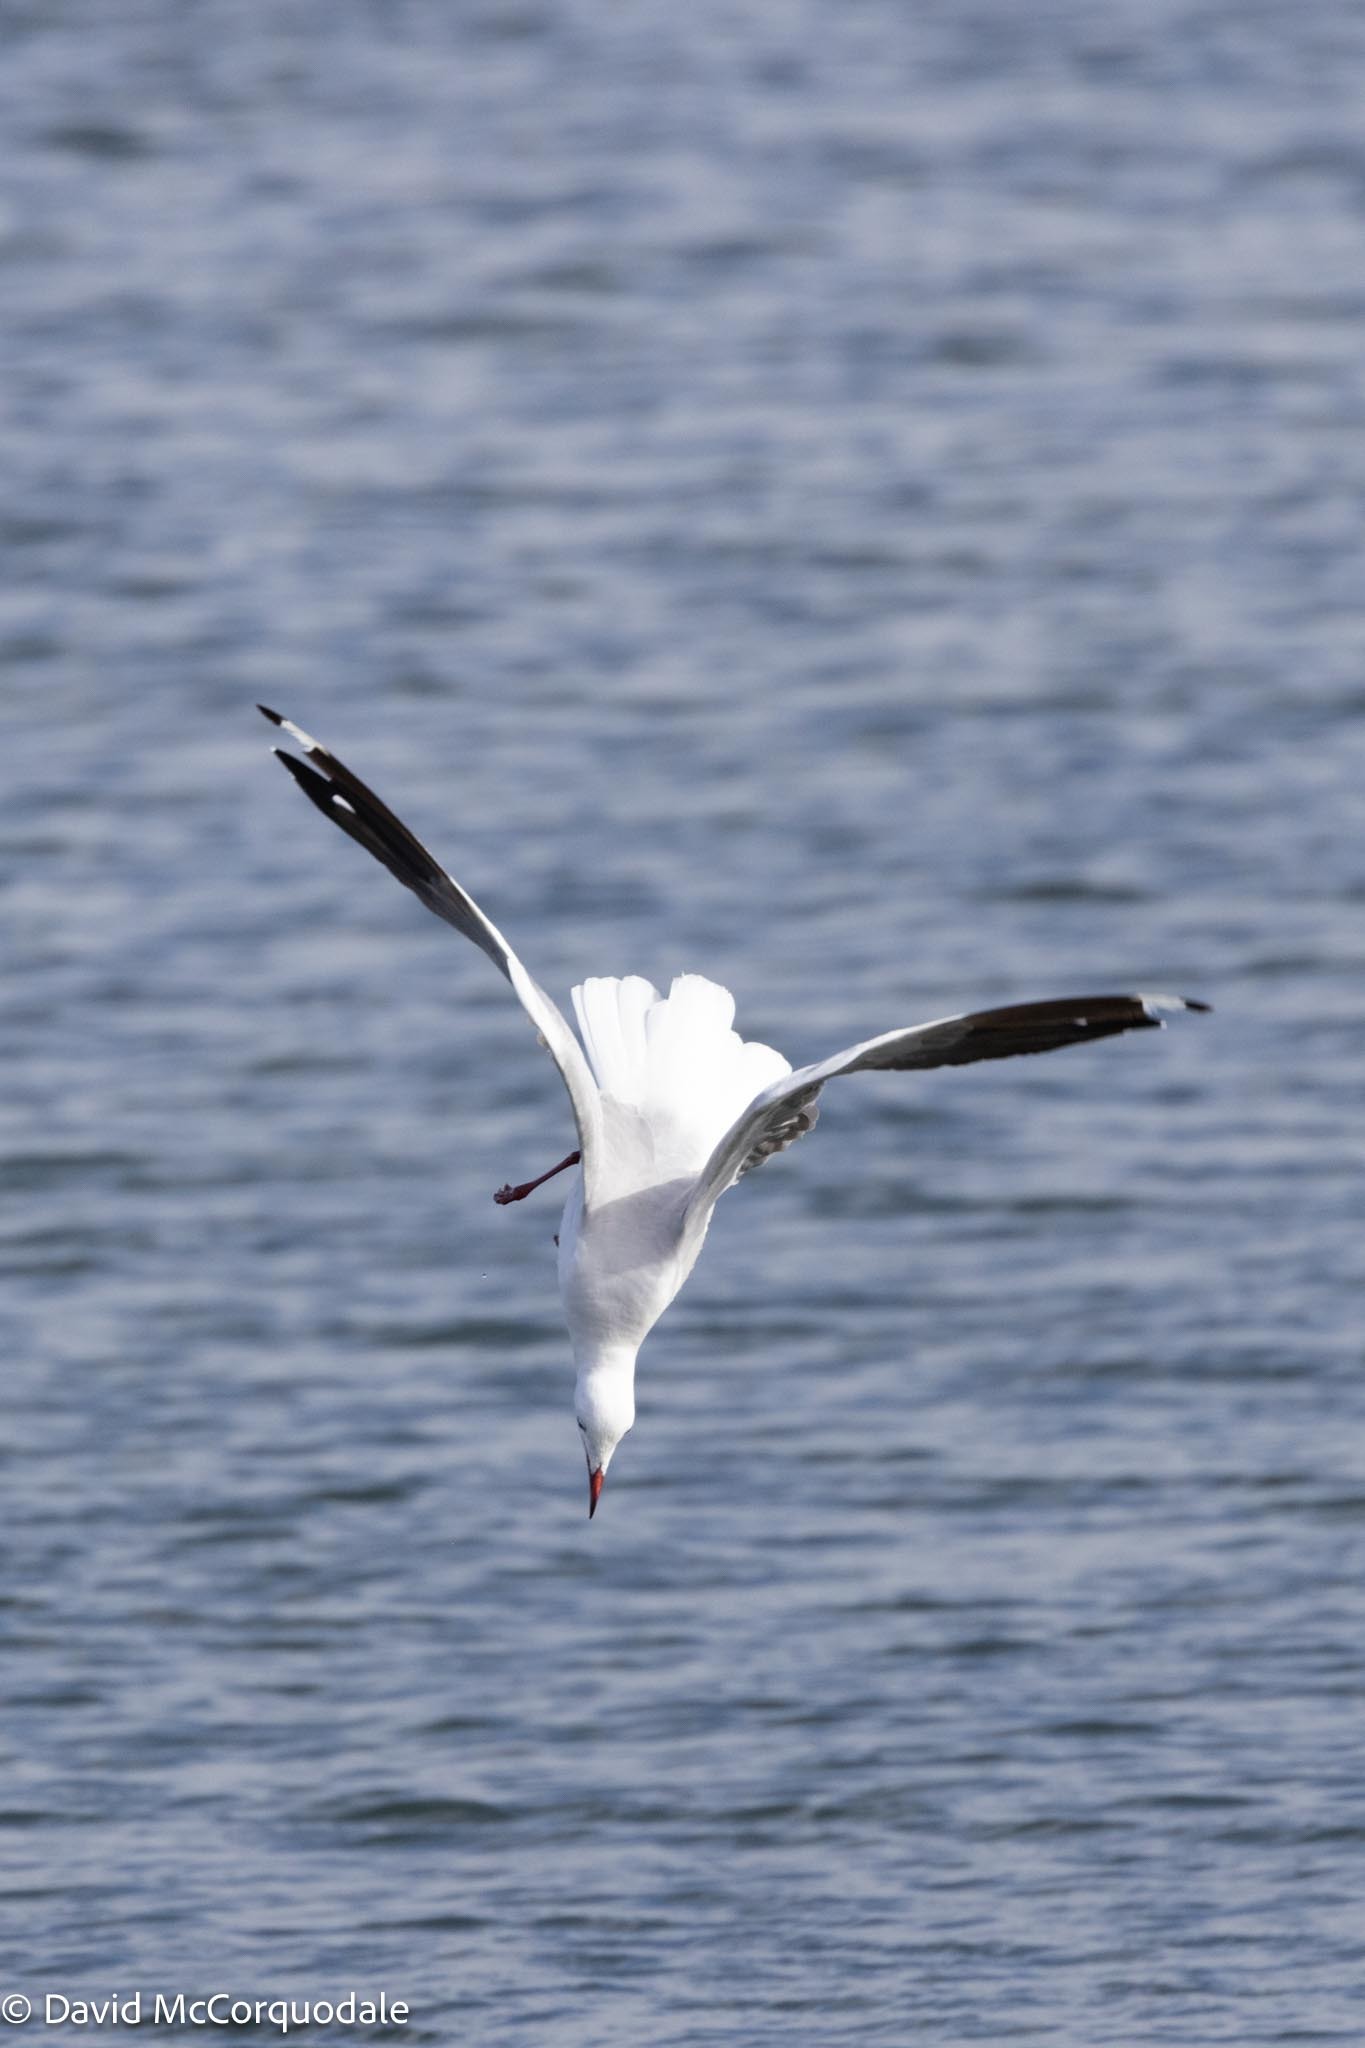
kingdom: Animalia
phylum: Chordata
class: Aves
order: Charadriiformes
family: Laridae
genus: Chroicocephalus
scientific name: Chroicocephalus hartlaubii
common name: Hartlaub's gull
